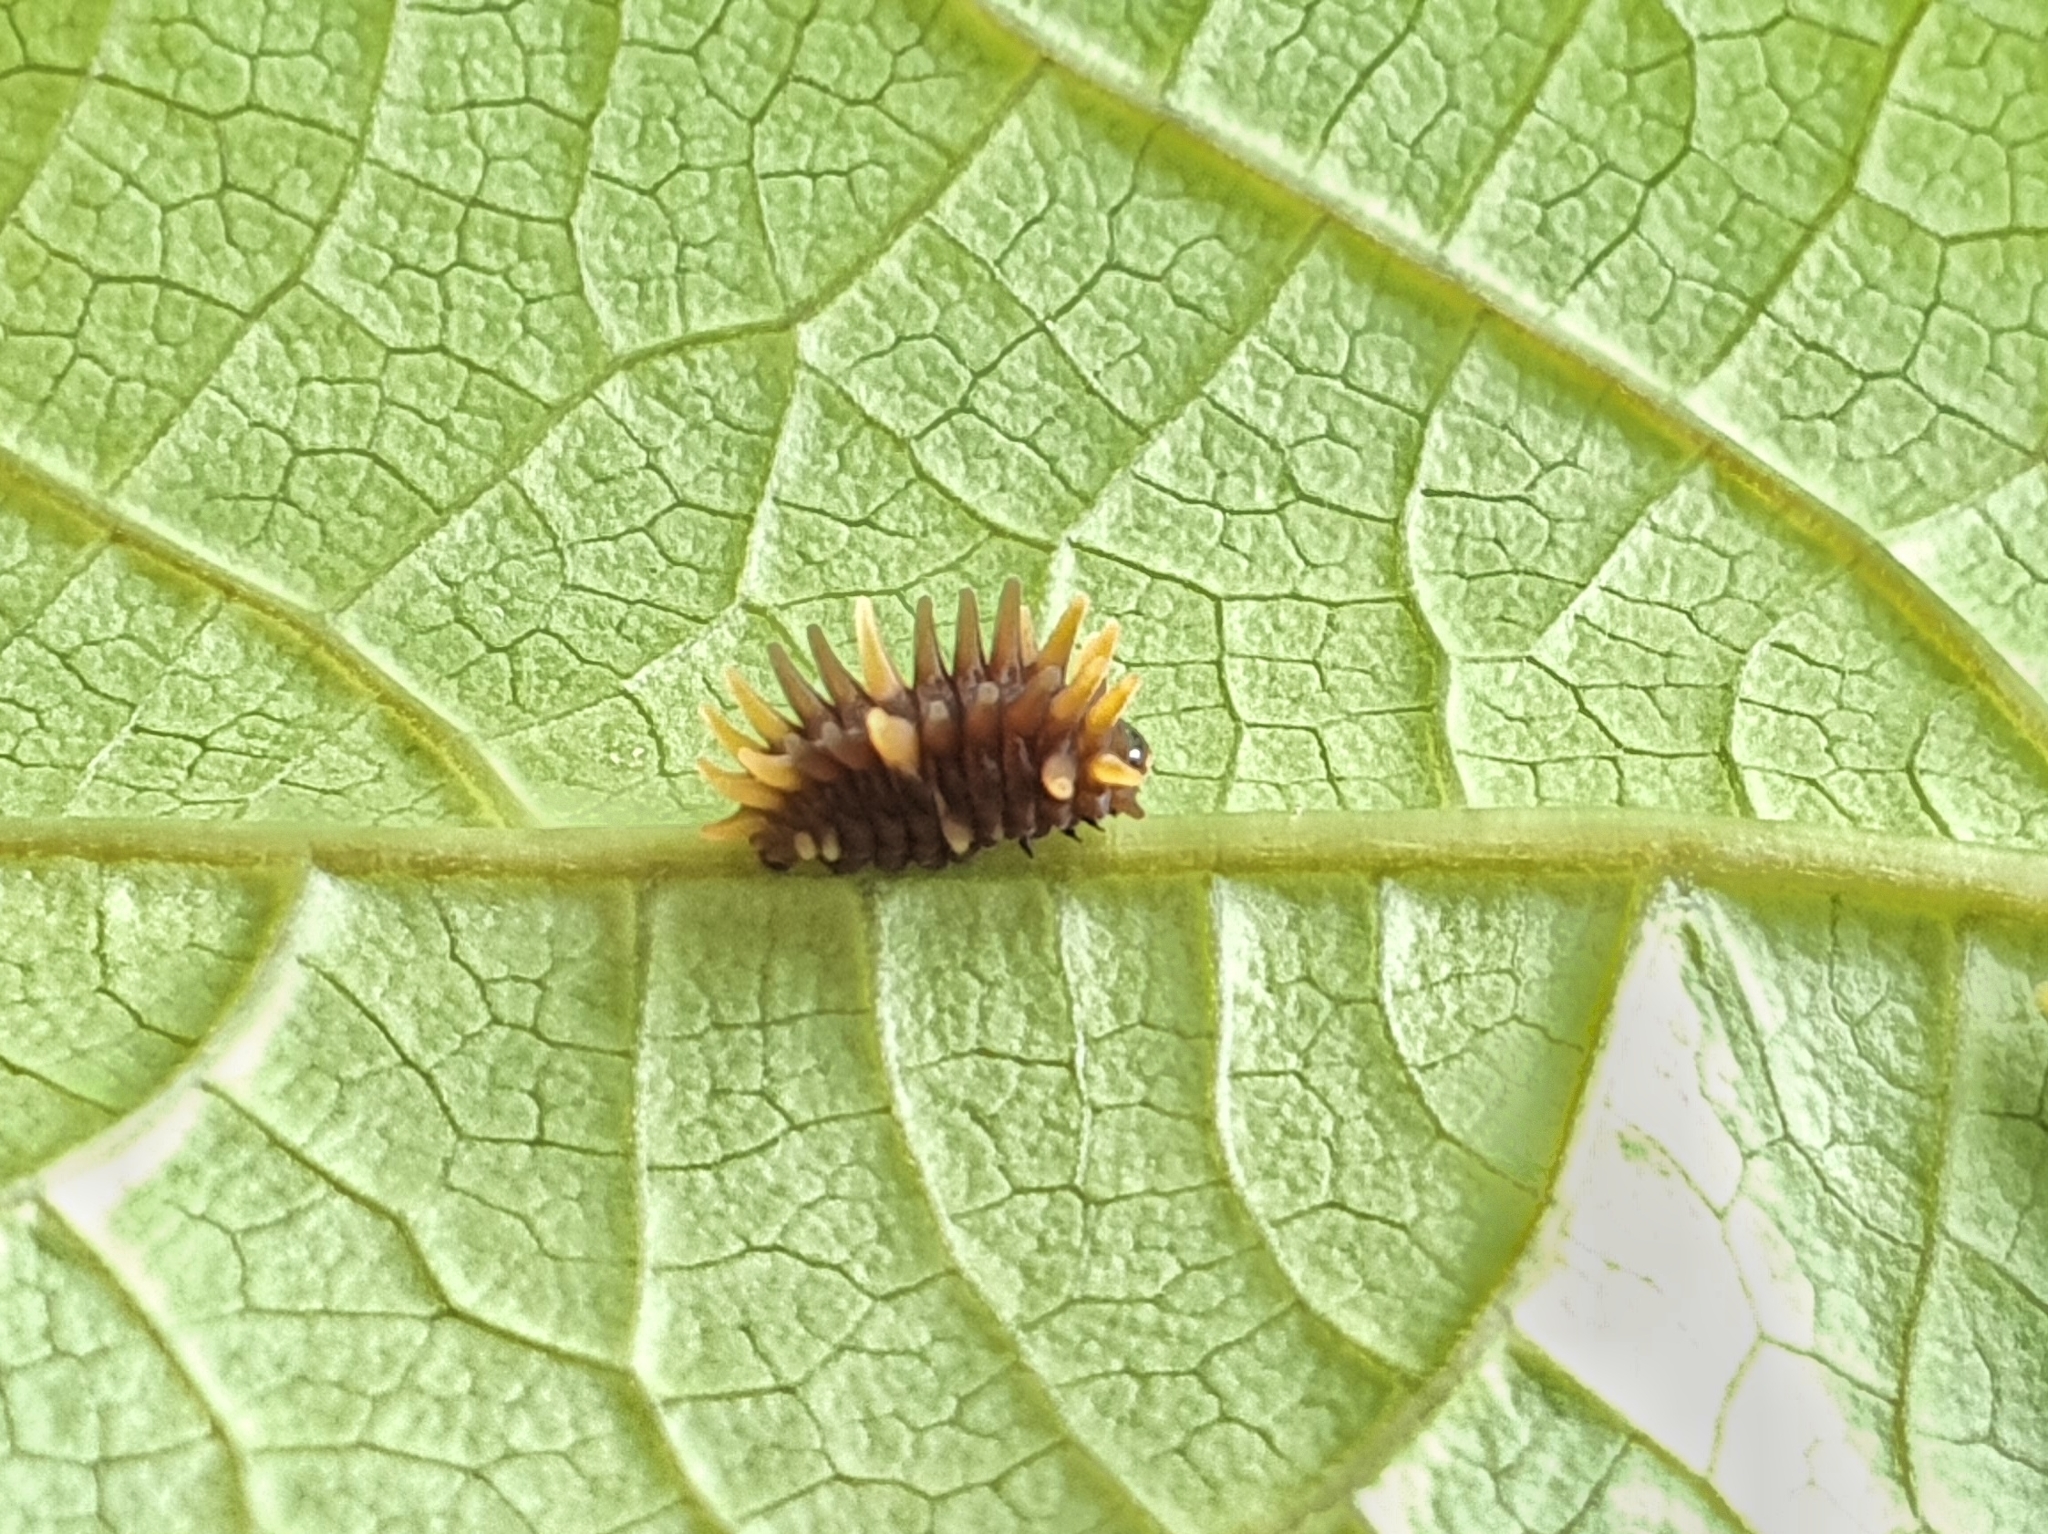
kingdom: Animalia
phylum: Arthropoda
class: Insecta
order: Lepidoptera
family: Papilionidae
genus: Troides
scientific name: Troides helena
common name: Common birdwing
